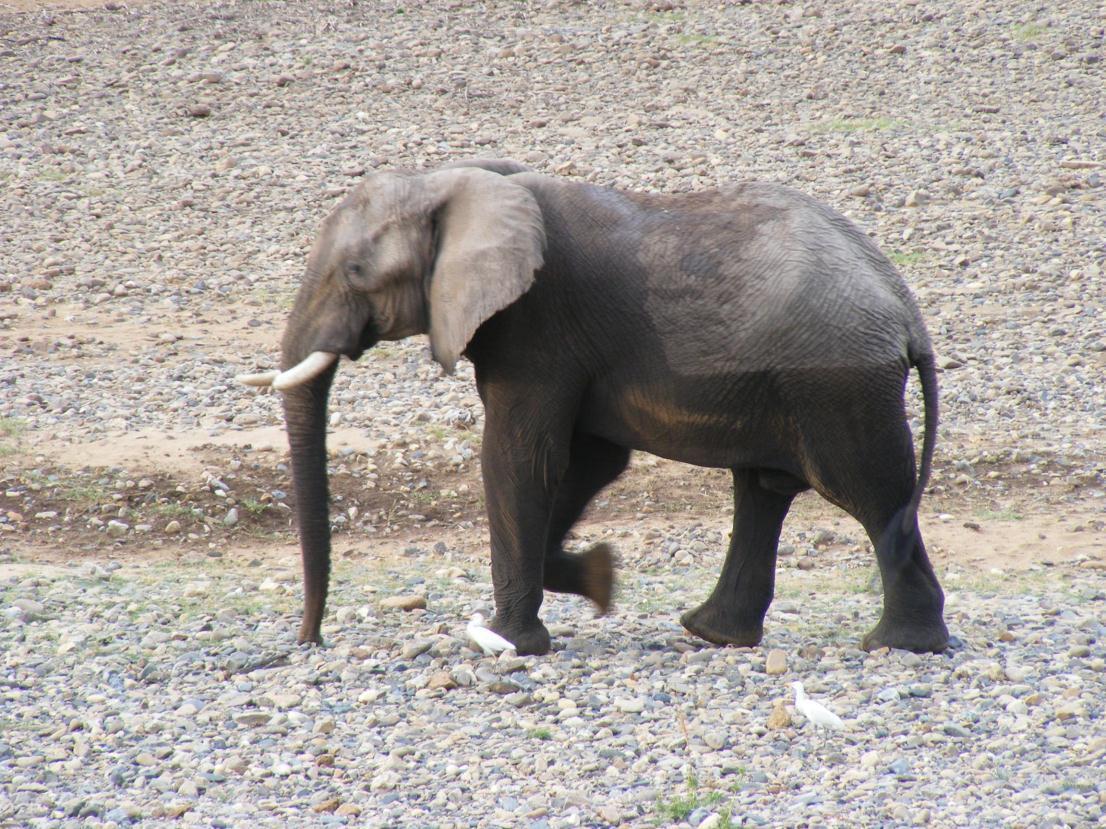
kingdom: Animalia
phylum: Chordata
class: Mammalia
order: Proboscidea
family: Elephantidae
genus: Loxodonta
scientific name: Loxodonta africana
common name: African elephant
